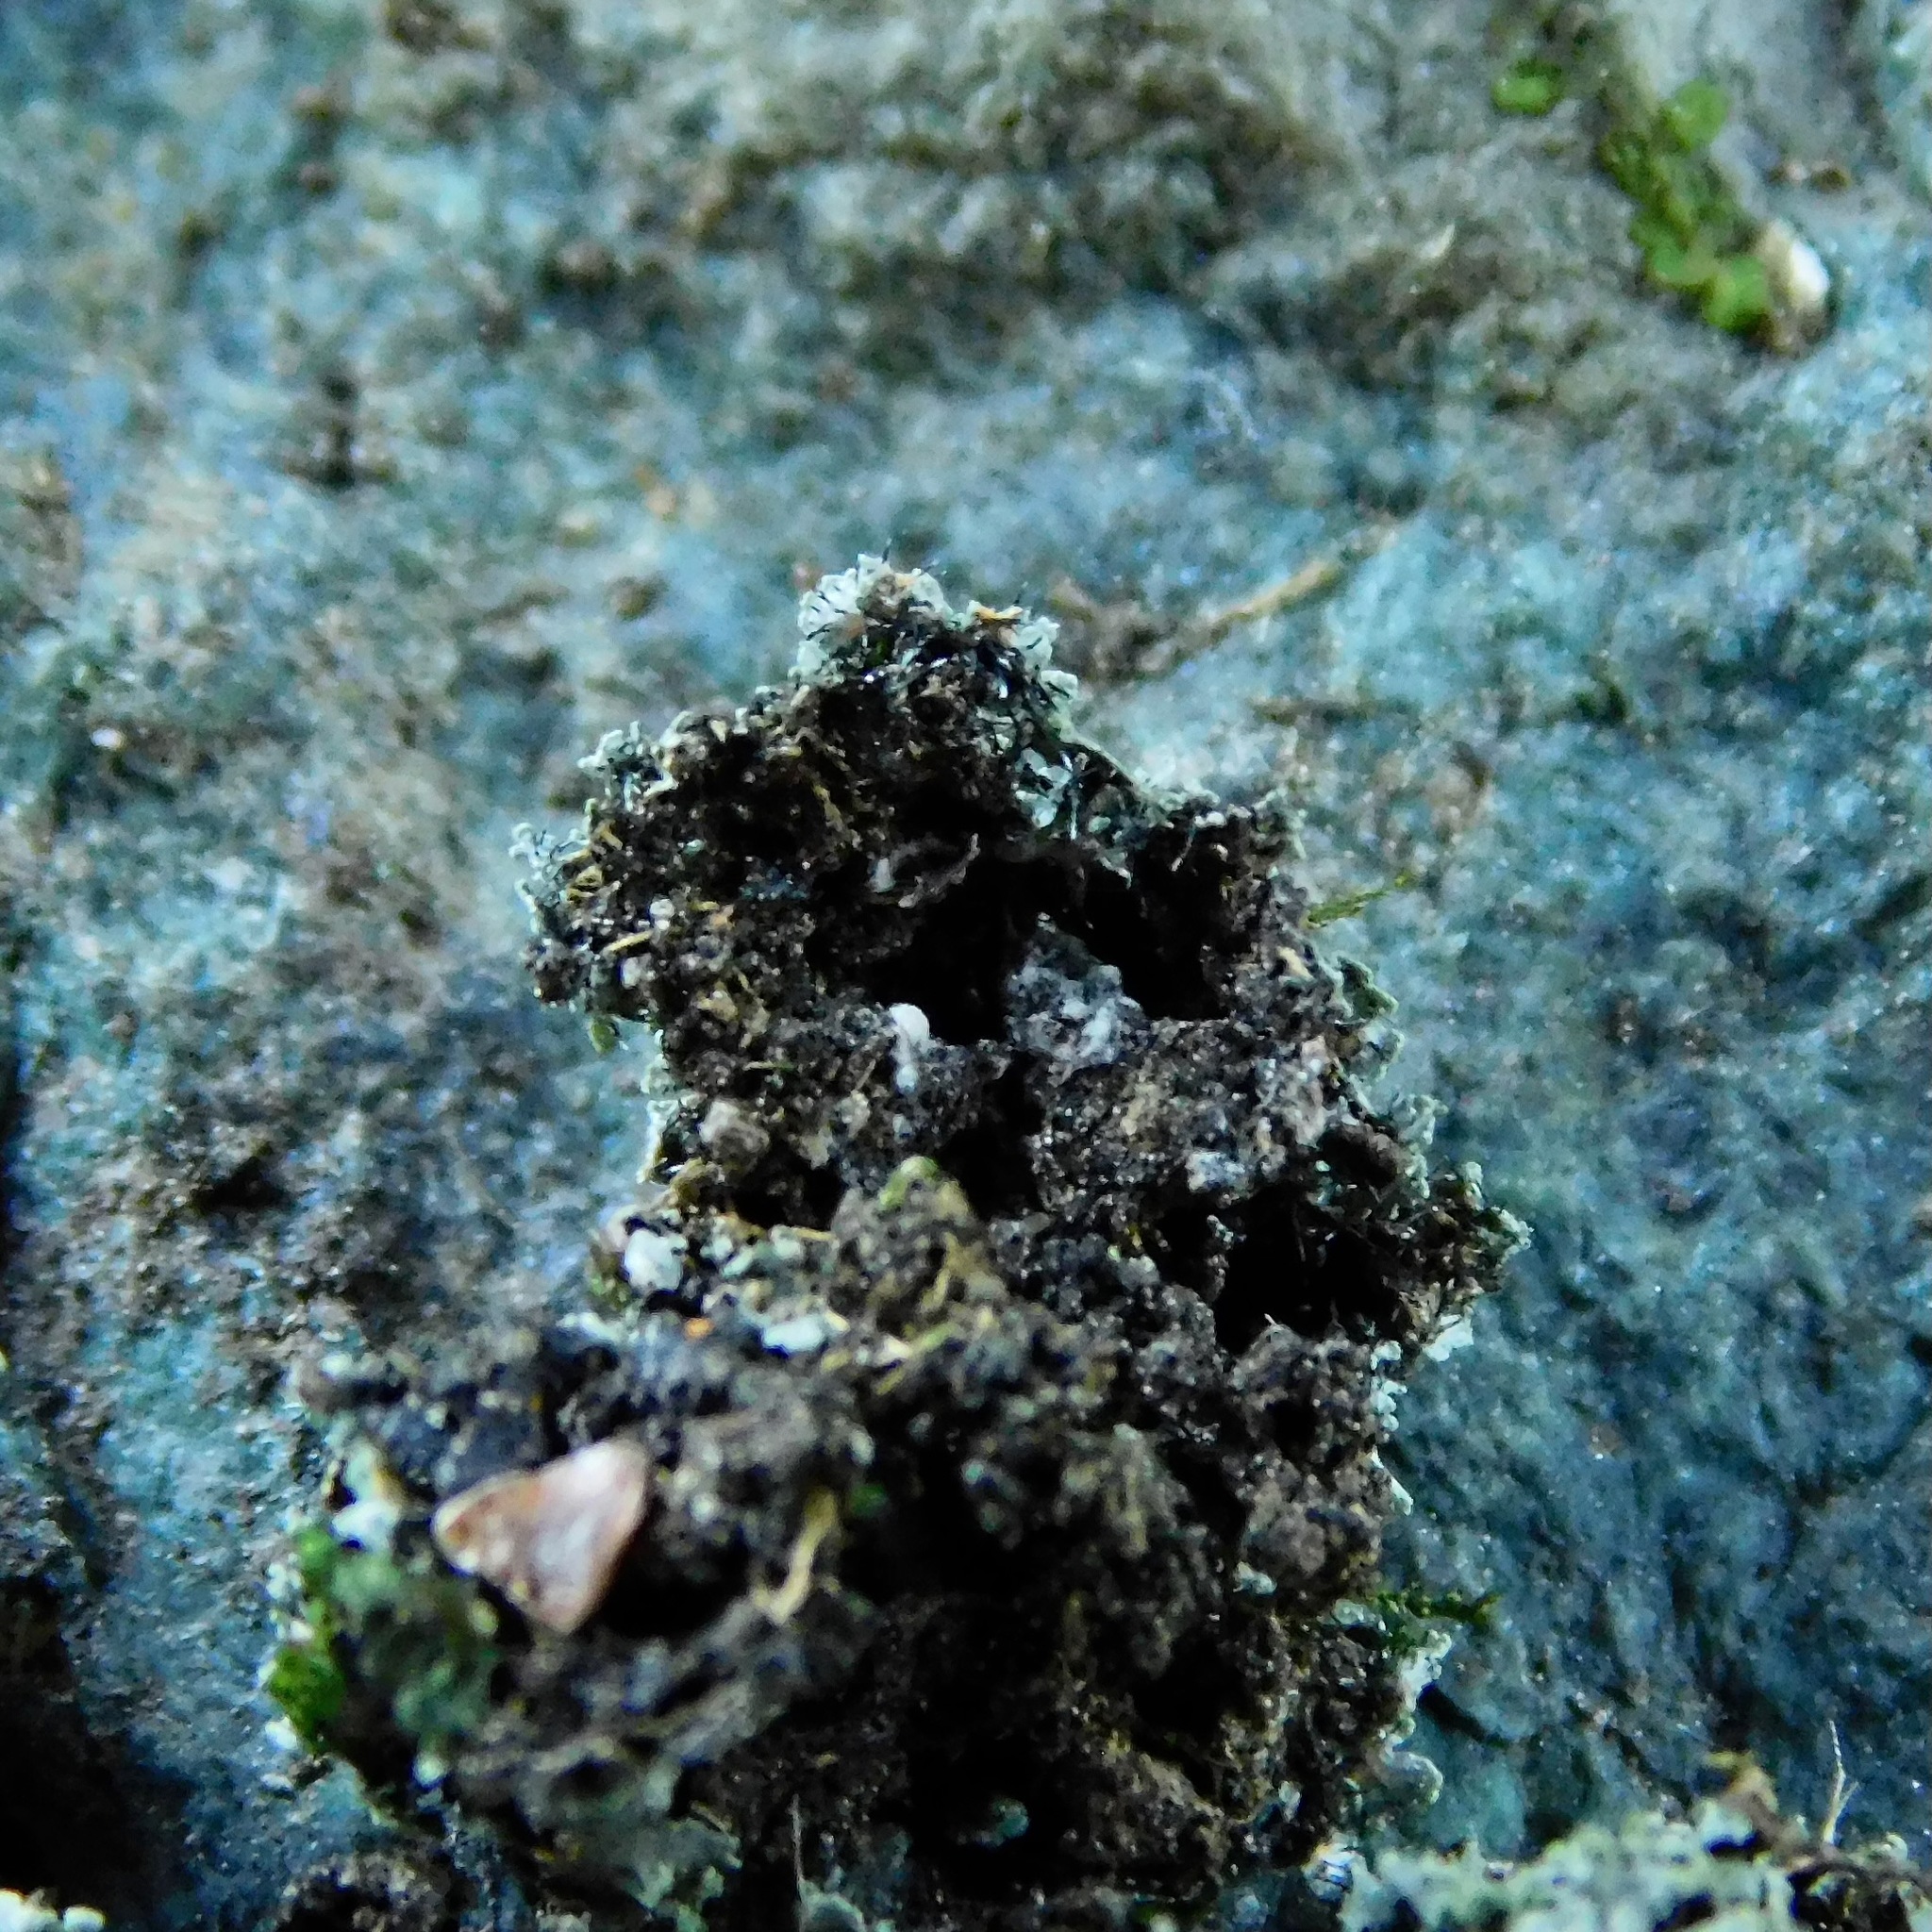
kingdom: Fungi
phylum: Ascomycota
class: Lecanoromycetes
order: Caliciales
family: Physciaceae
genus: Phaeophyscia
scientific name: Phaeophyscia adiastola
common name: Powder-tipped shadow lichen
